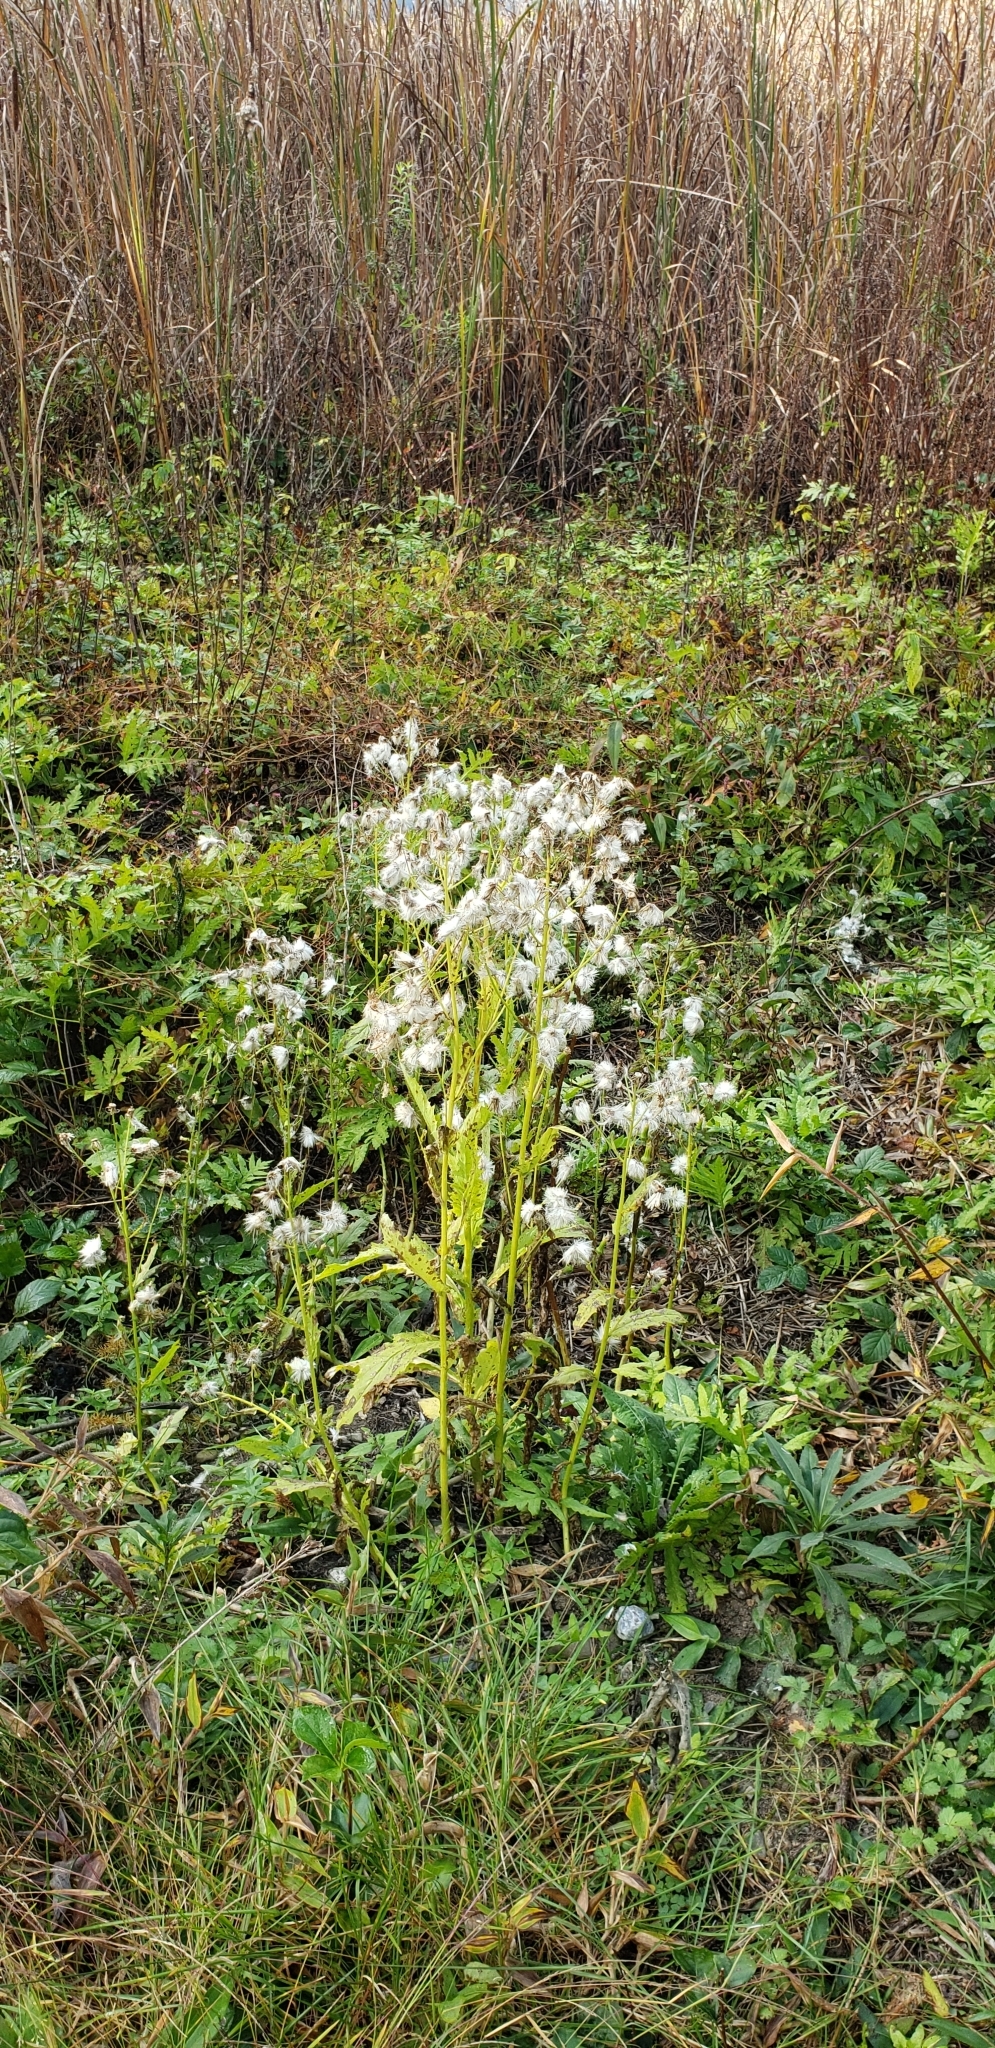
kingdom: Plantae
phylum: Tracheophyta
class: Magnoliopsida
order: Asterales
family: Asteraceae
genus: Erechtites
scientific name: Erechtites hieraciifolius
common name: American burnweed
